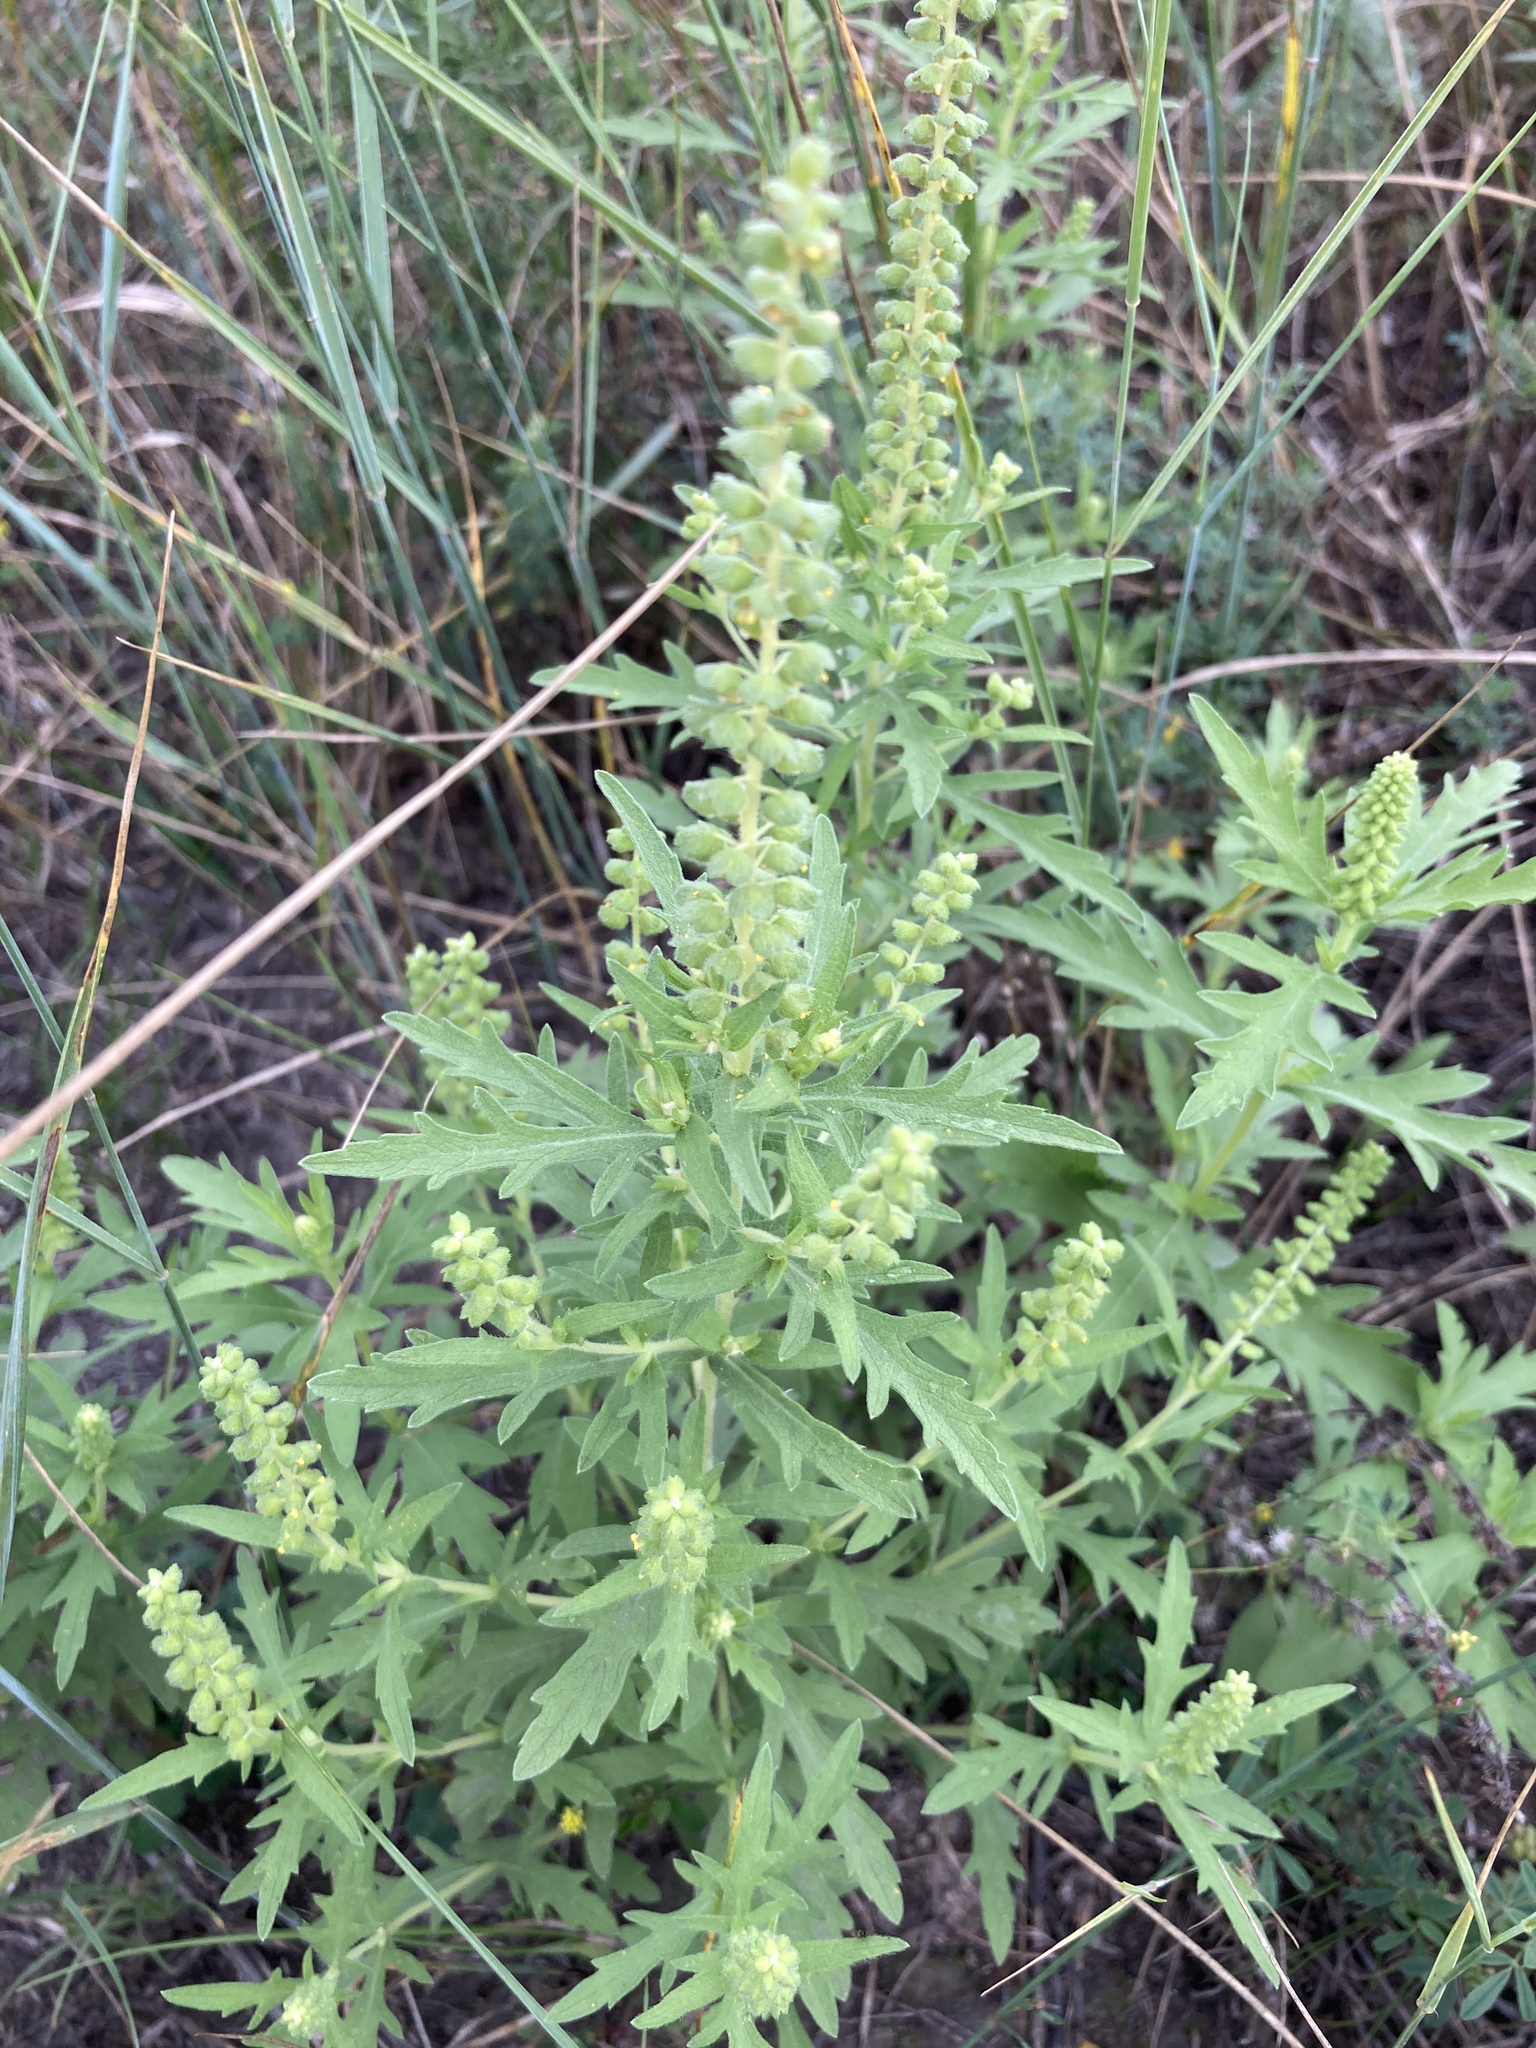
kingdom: Plantae
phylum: Tracheophyta
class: Magnoliopsida
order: Asterales
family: Asteraceae
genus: Ambrosia
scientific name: Ambrosia psilostachya
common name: Perennial ragweed
